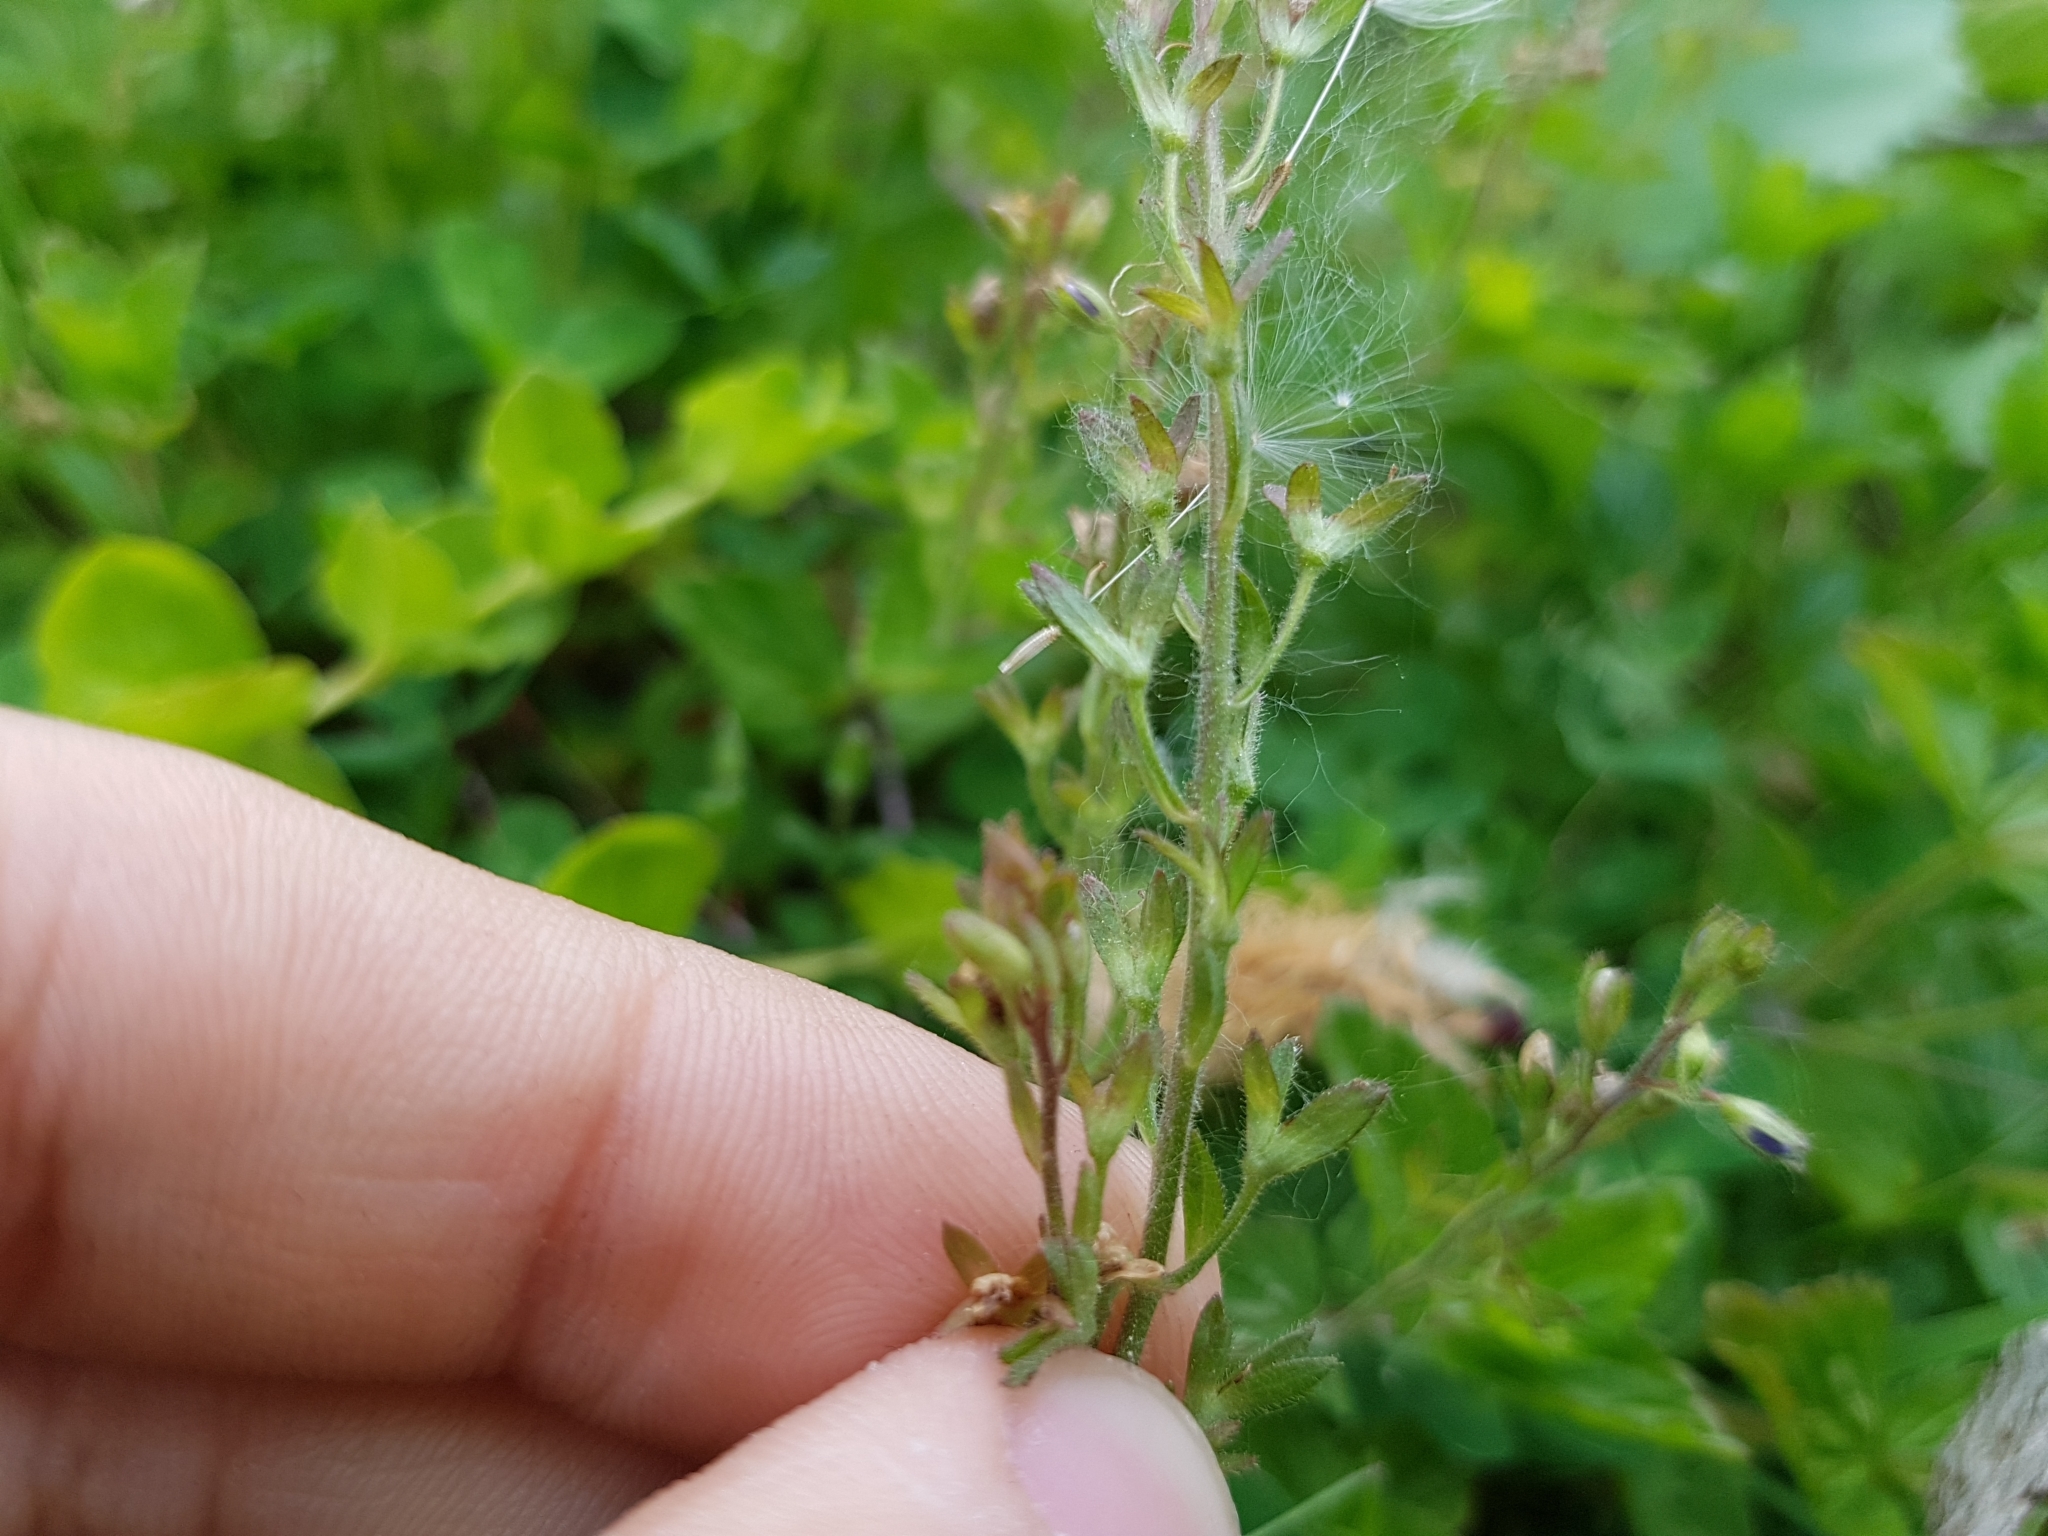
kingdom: Plantae
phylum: Tracheophyta
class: Magnoliopsida
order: Lamiales
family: Plantaginaceae
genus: Veronica
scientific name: Veronica chamaedrys
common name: Germander speedwell
